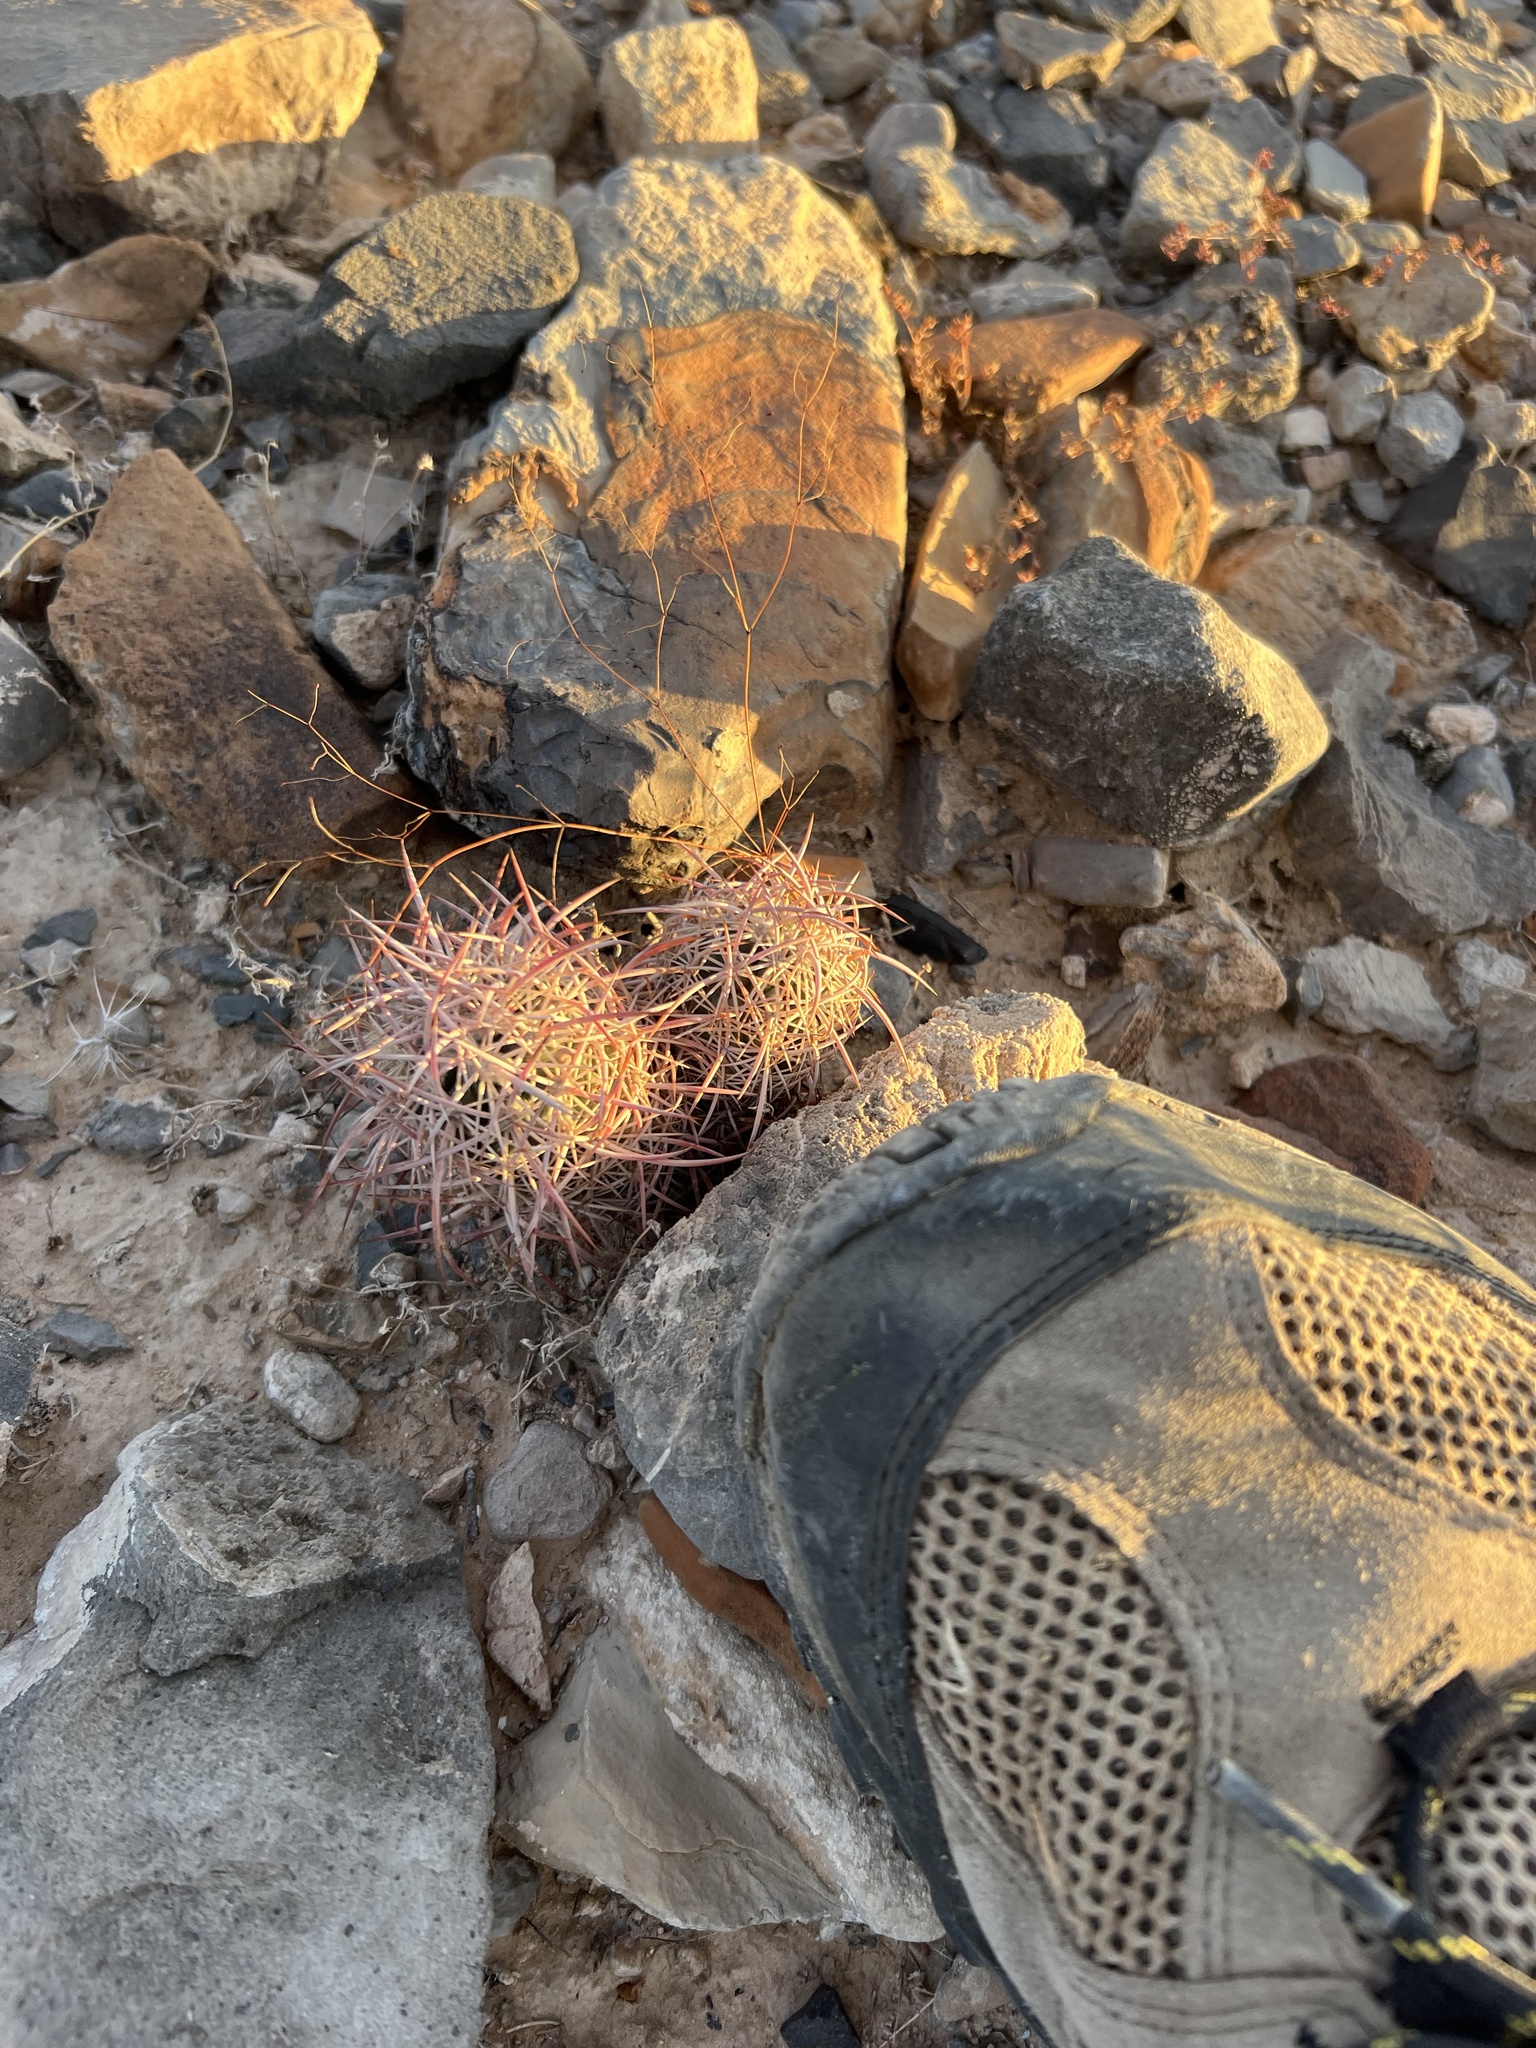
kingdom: Plantae
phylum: Tracheophyta
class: Magnoliopsida
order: Caryophyllales
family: Cactaceae
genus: Sclerocactus
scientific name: Sclerocactus johnsonii
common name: Eight-spine fishhook cactus
